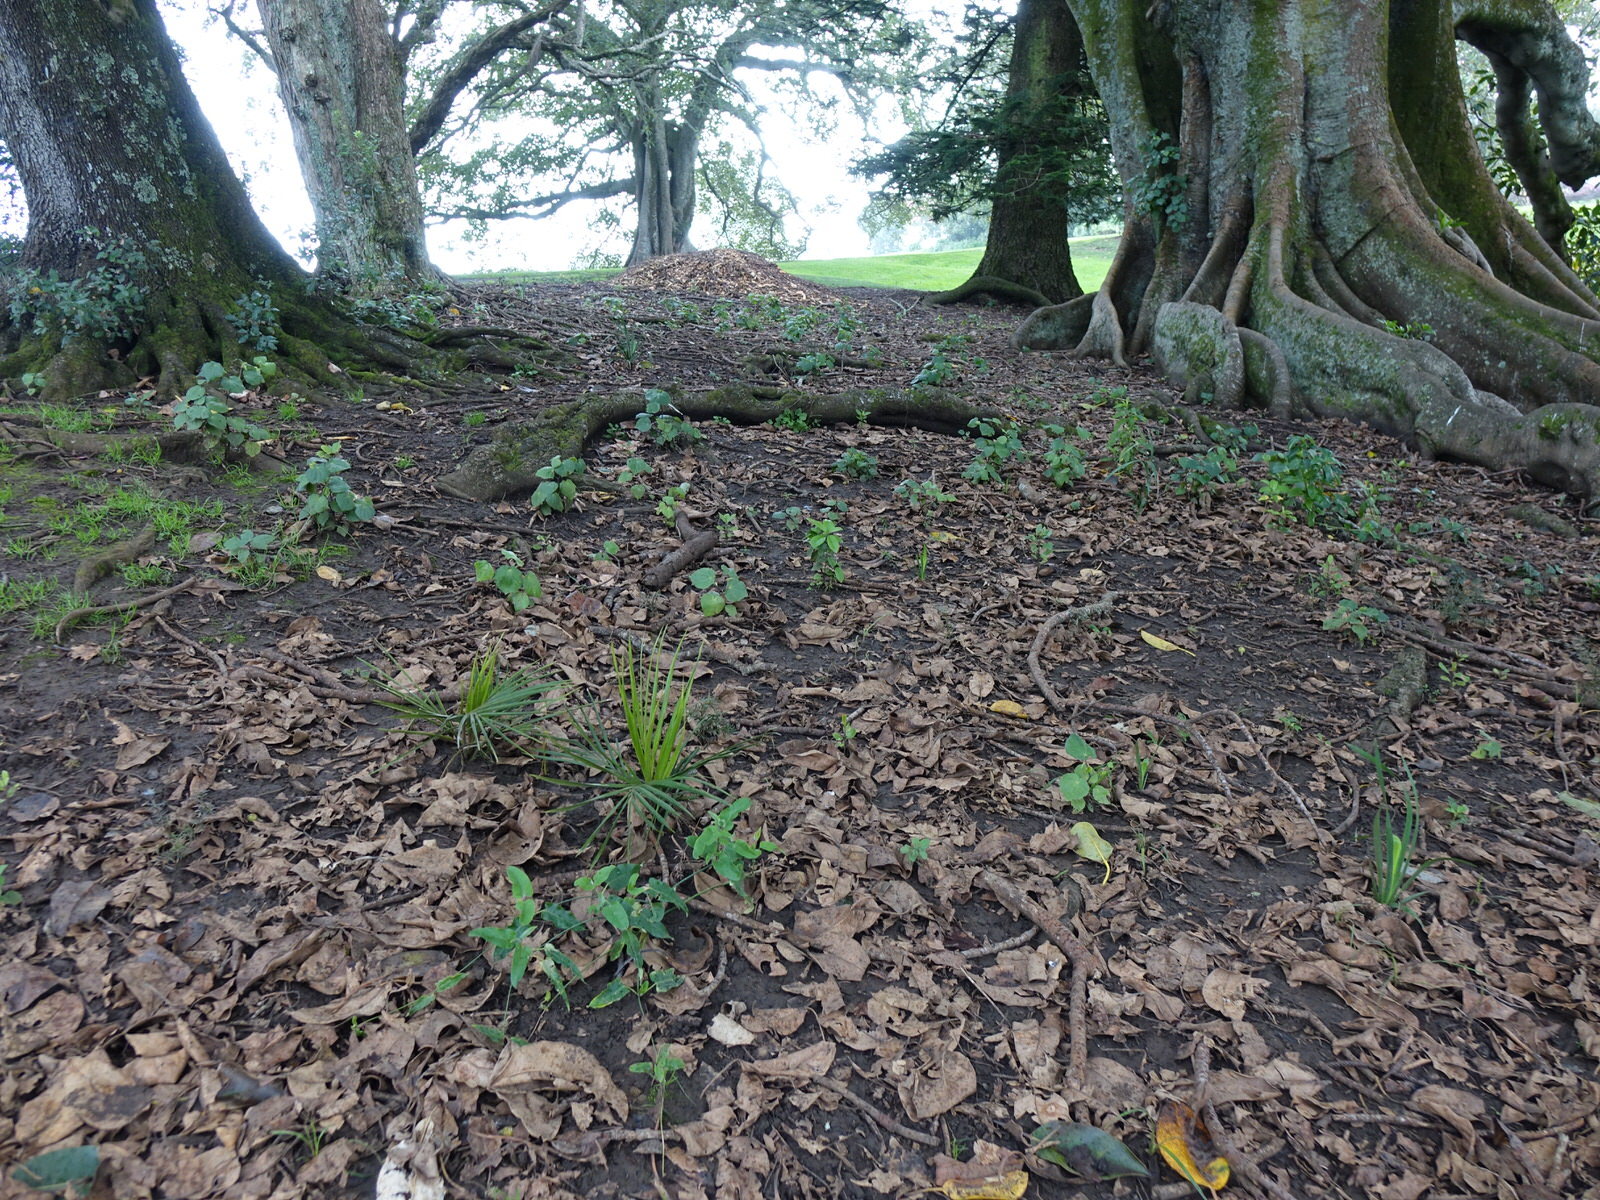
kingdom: Plantae
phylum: Tracheophyta
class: Magnoliopsida
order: Gentianales
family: Apocynaceae
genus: Araujia
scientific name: Araujia sericifera
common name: White bladderflower
